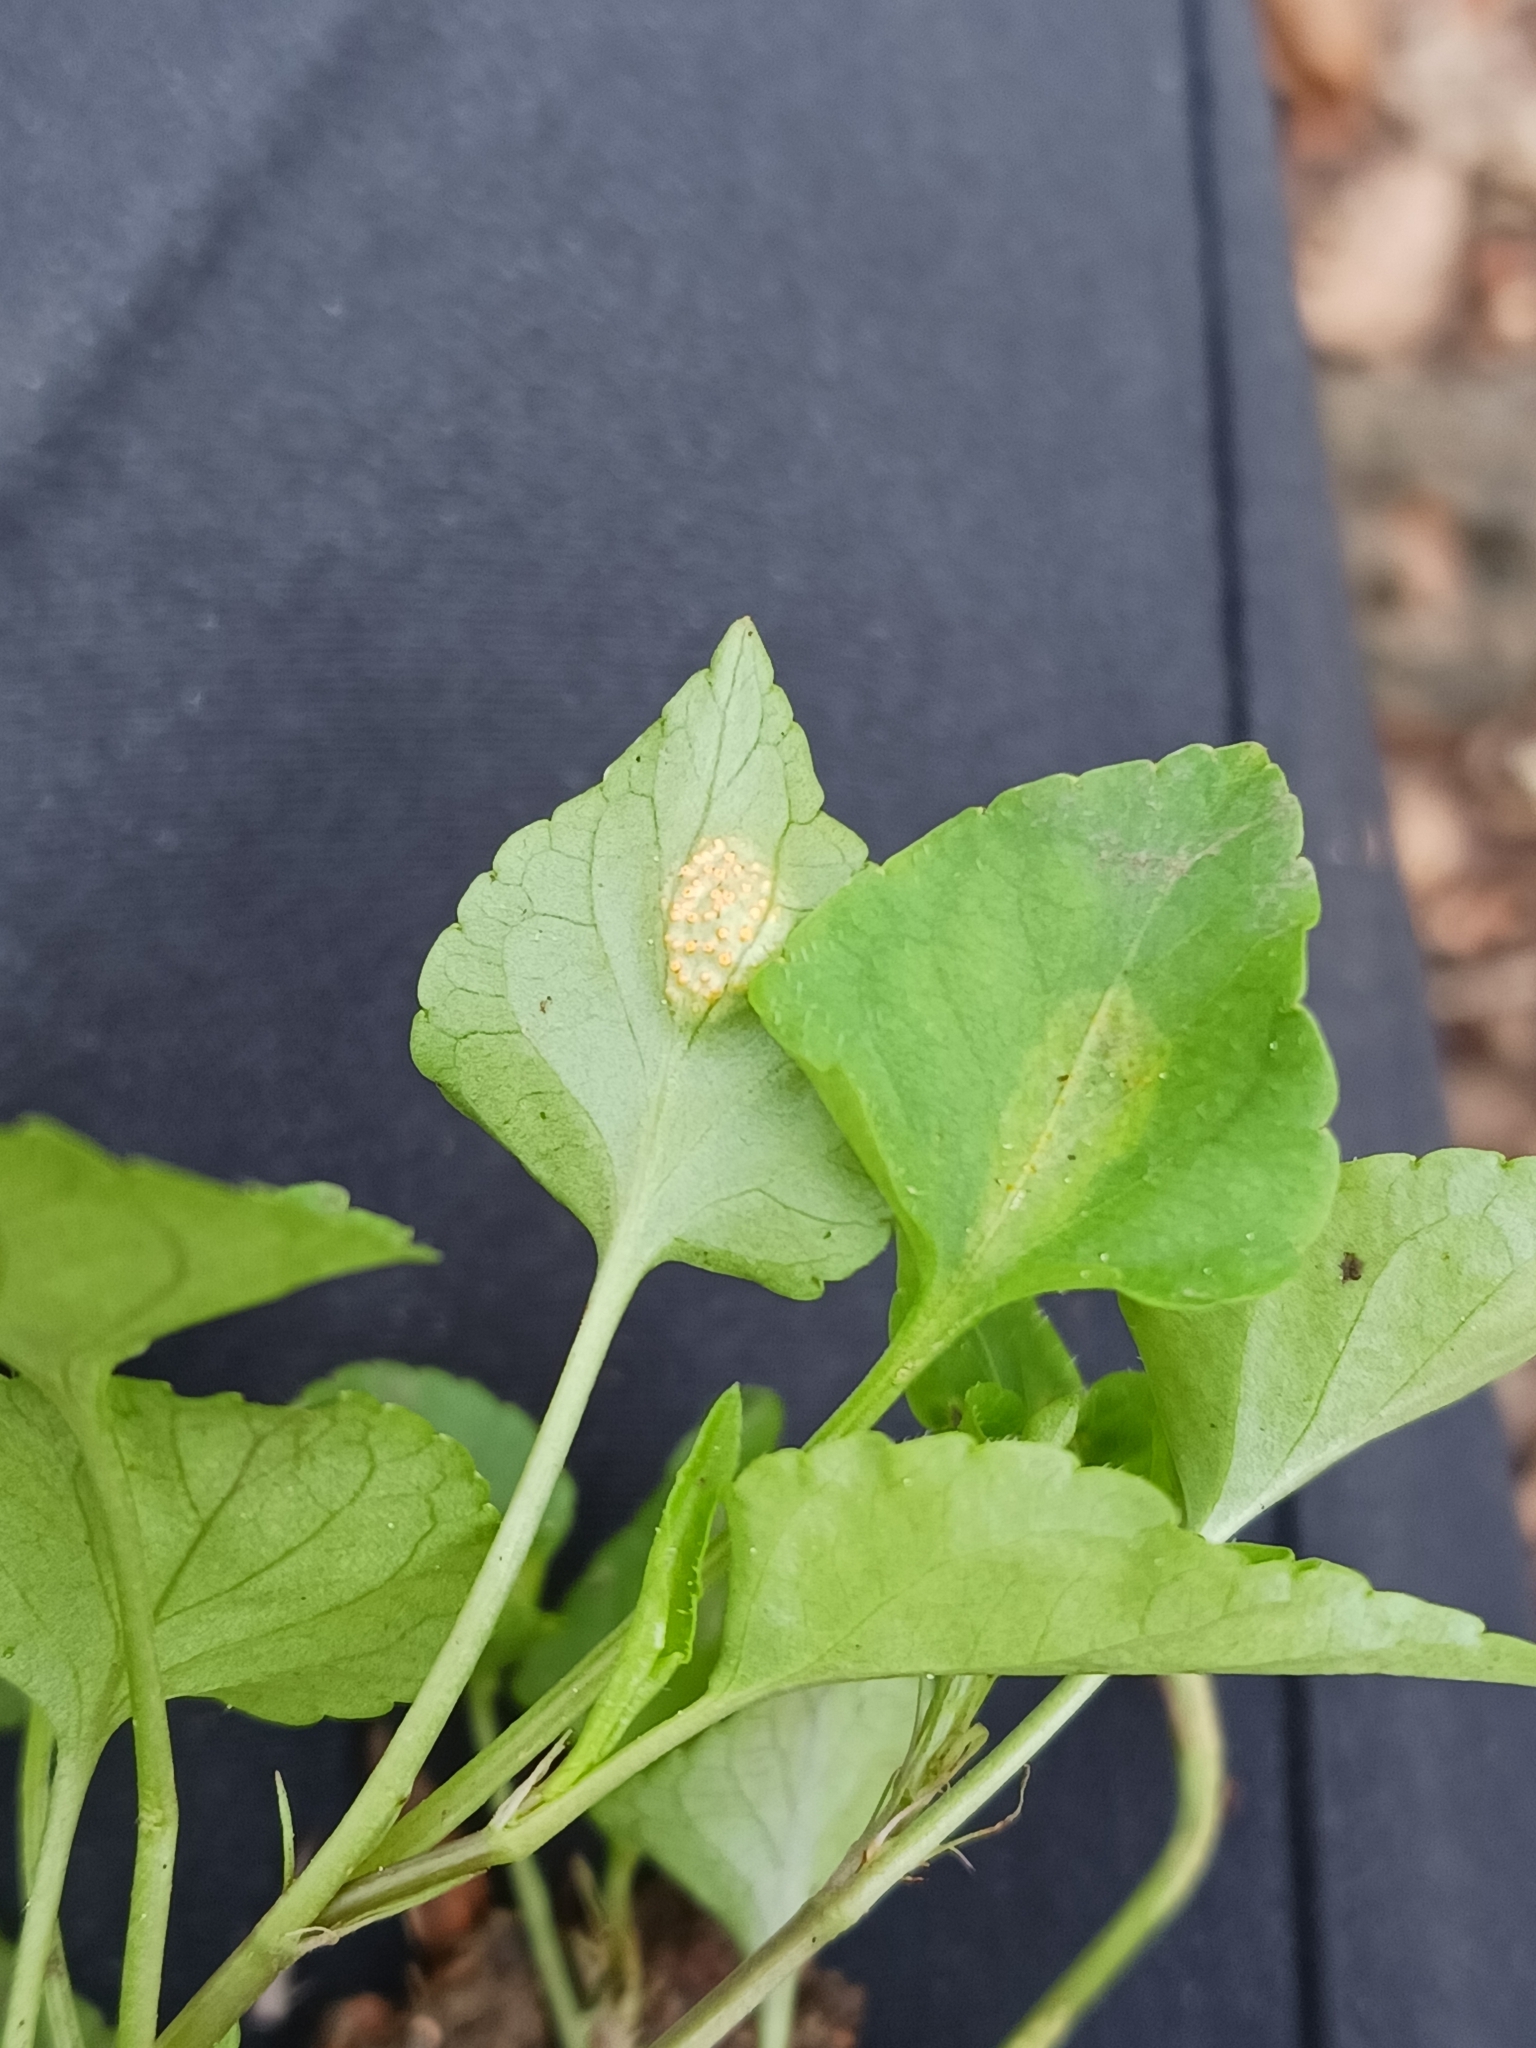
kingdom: Fungi
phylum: Basidiomycota
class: Pucciniomycetes
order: Pucciniales
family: Pucciniaceae
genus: Puccinia
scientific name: Puccinia violae
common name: Violet rust
